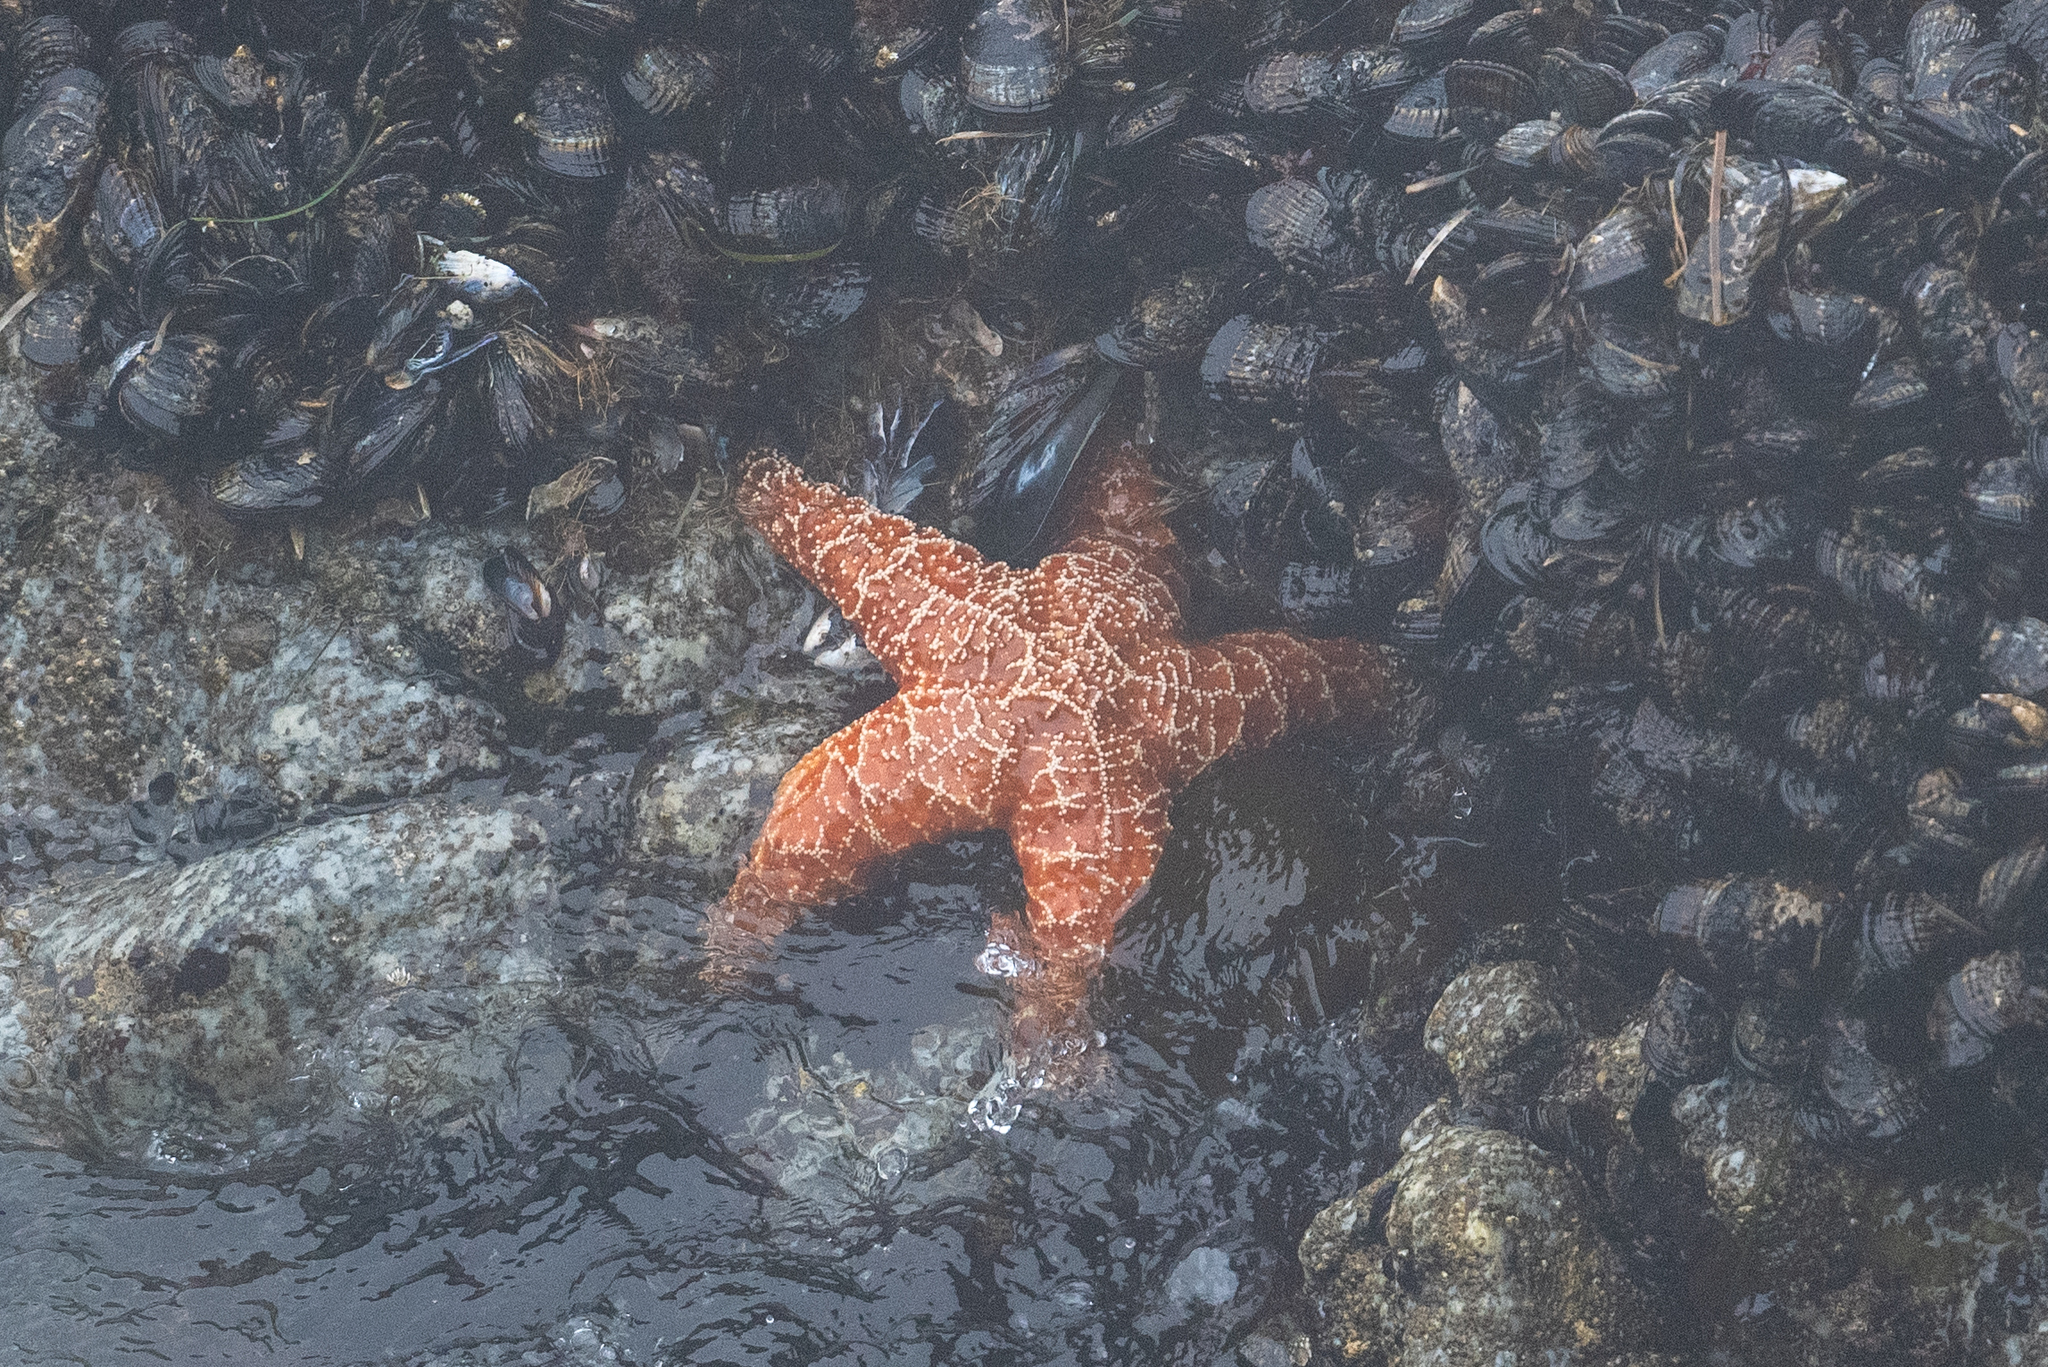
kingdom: Animalia
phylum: Echinodermata
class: Asteroidea
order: Forcipulatida
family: Asteriidae
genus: Pisaster
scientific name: Pisaster ochraceus
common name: Ochre stars
